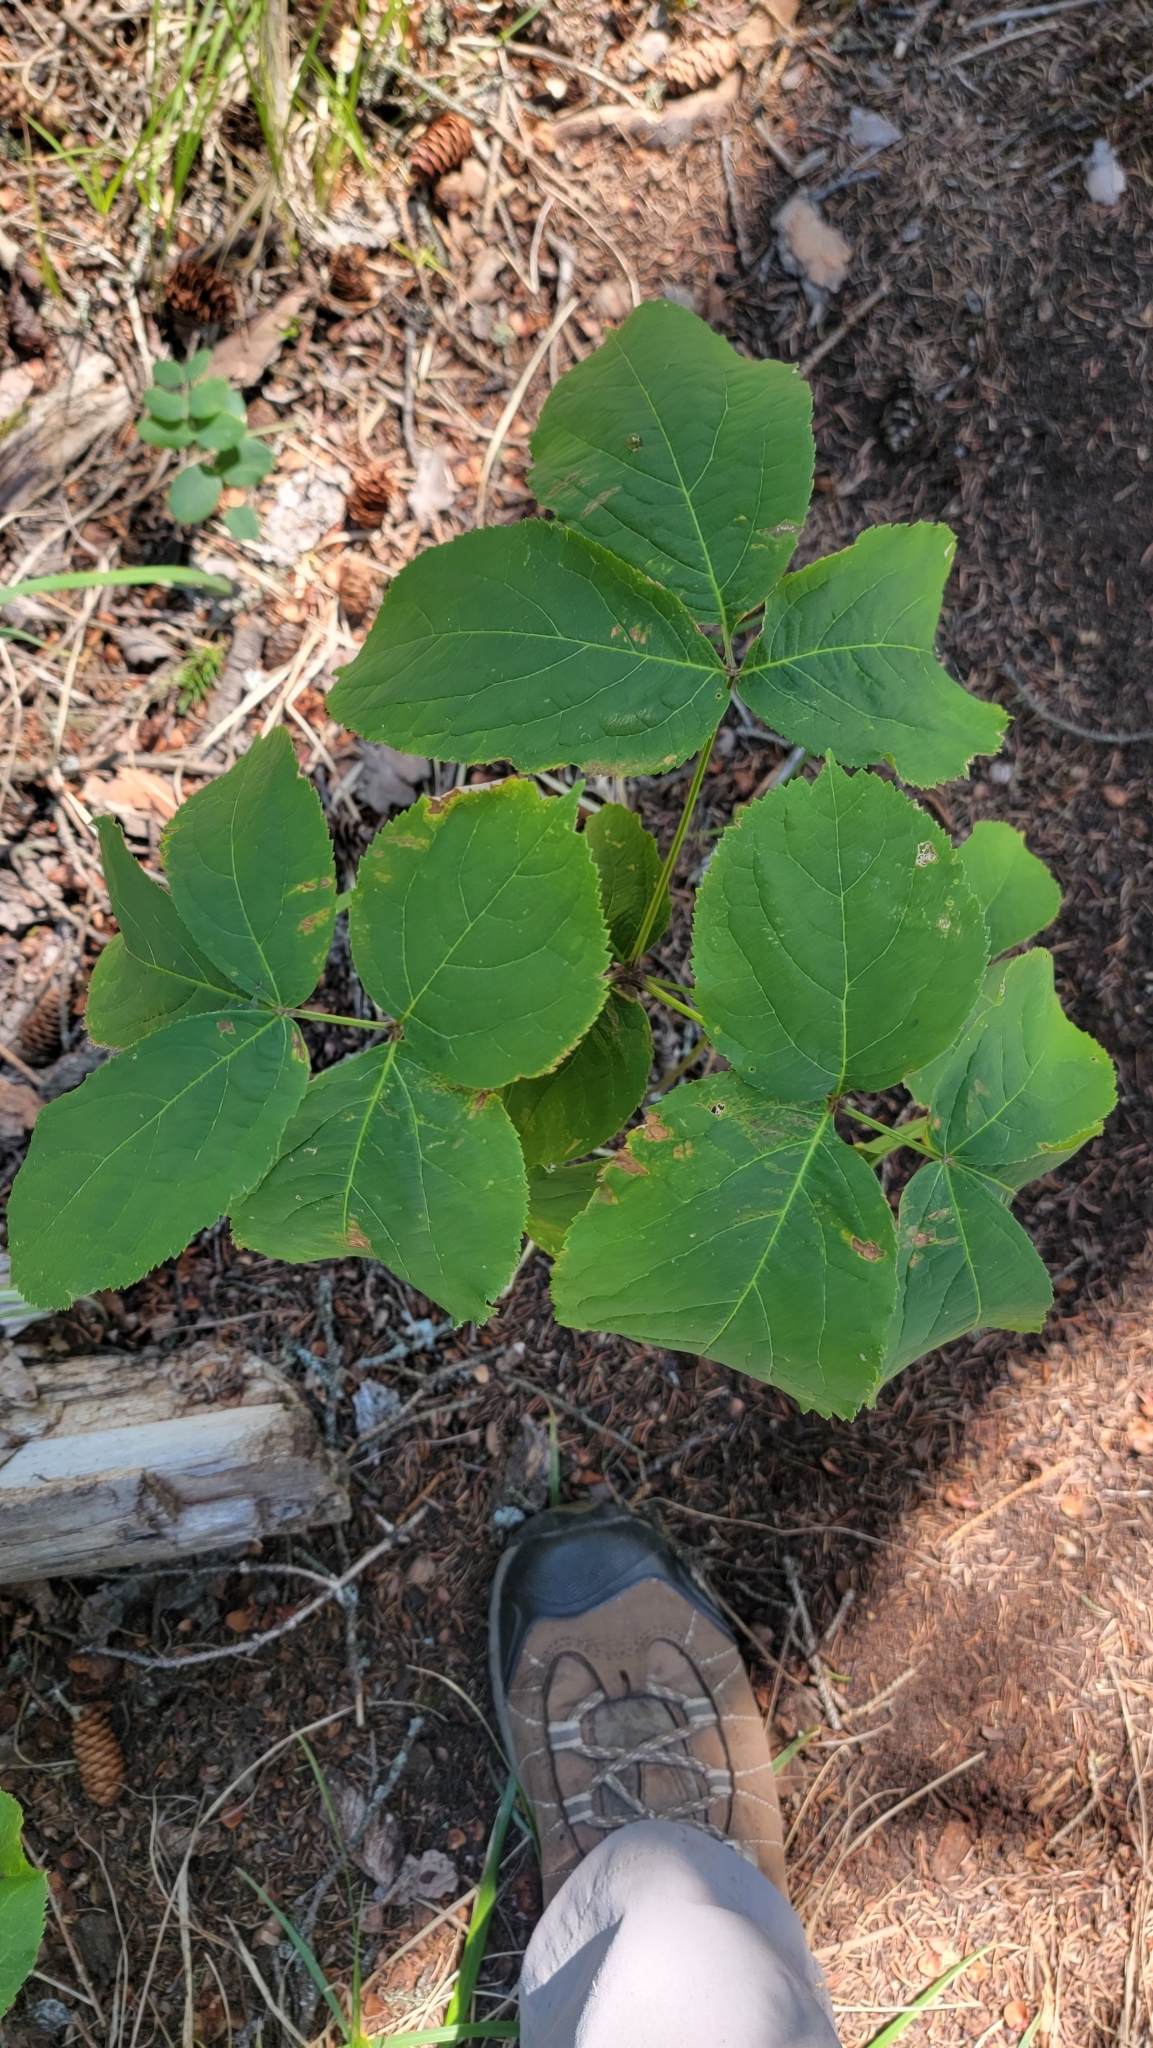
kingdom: Plantae
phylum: Tracheophyta
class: Magnoliopsida
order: Apiales
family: Araliaceae
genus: Aralia
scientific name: Aralia nudicaulis
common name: Wild sarsaparilla
